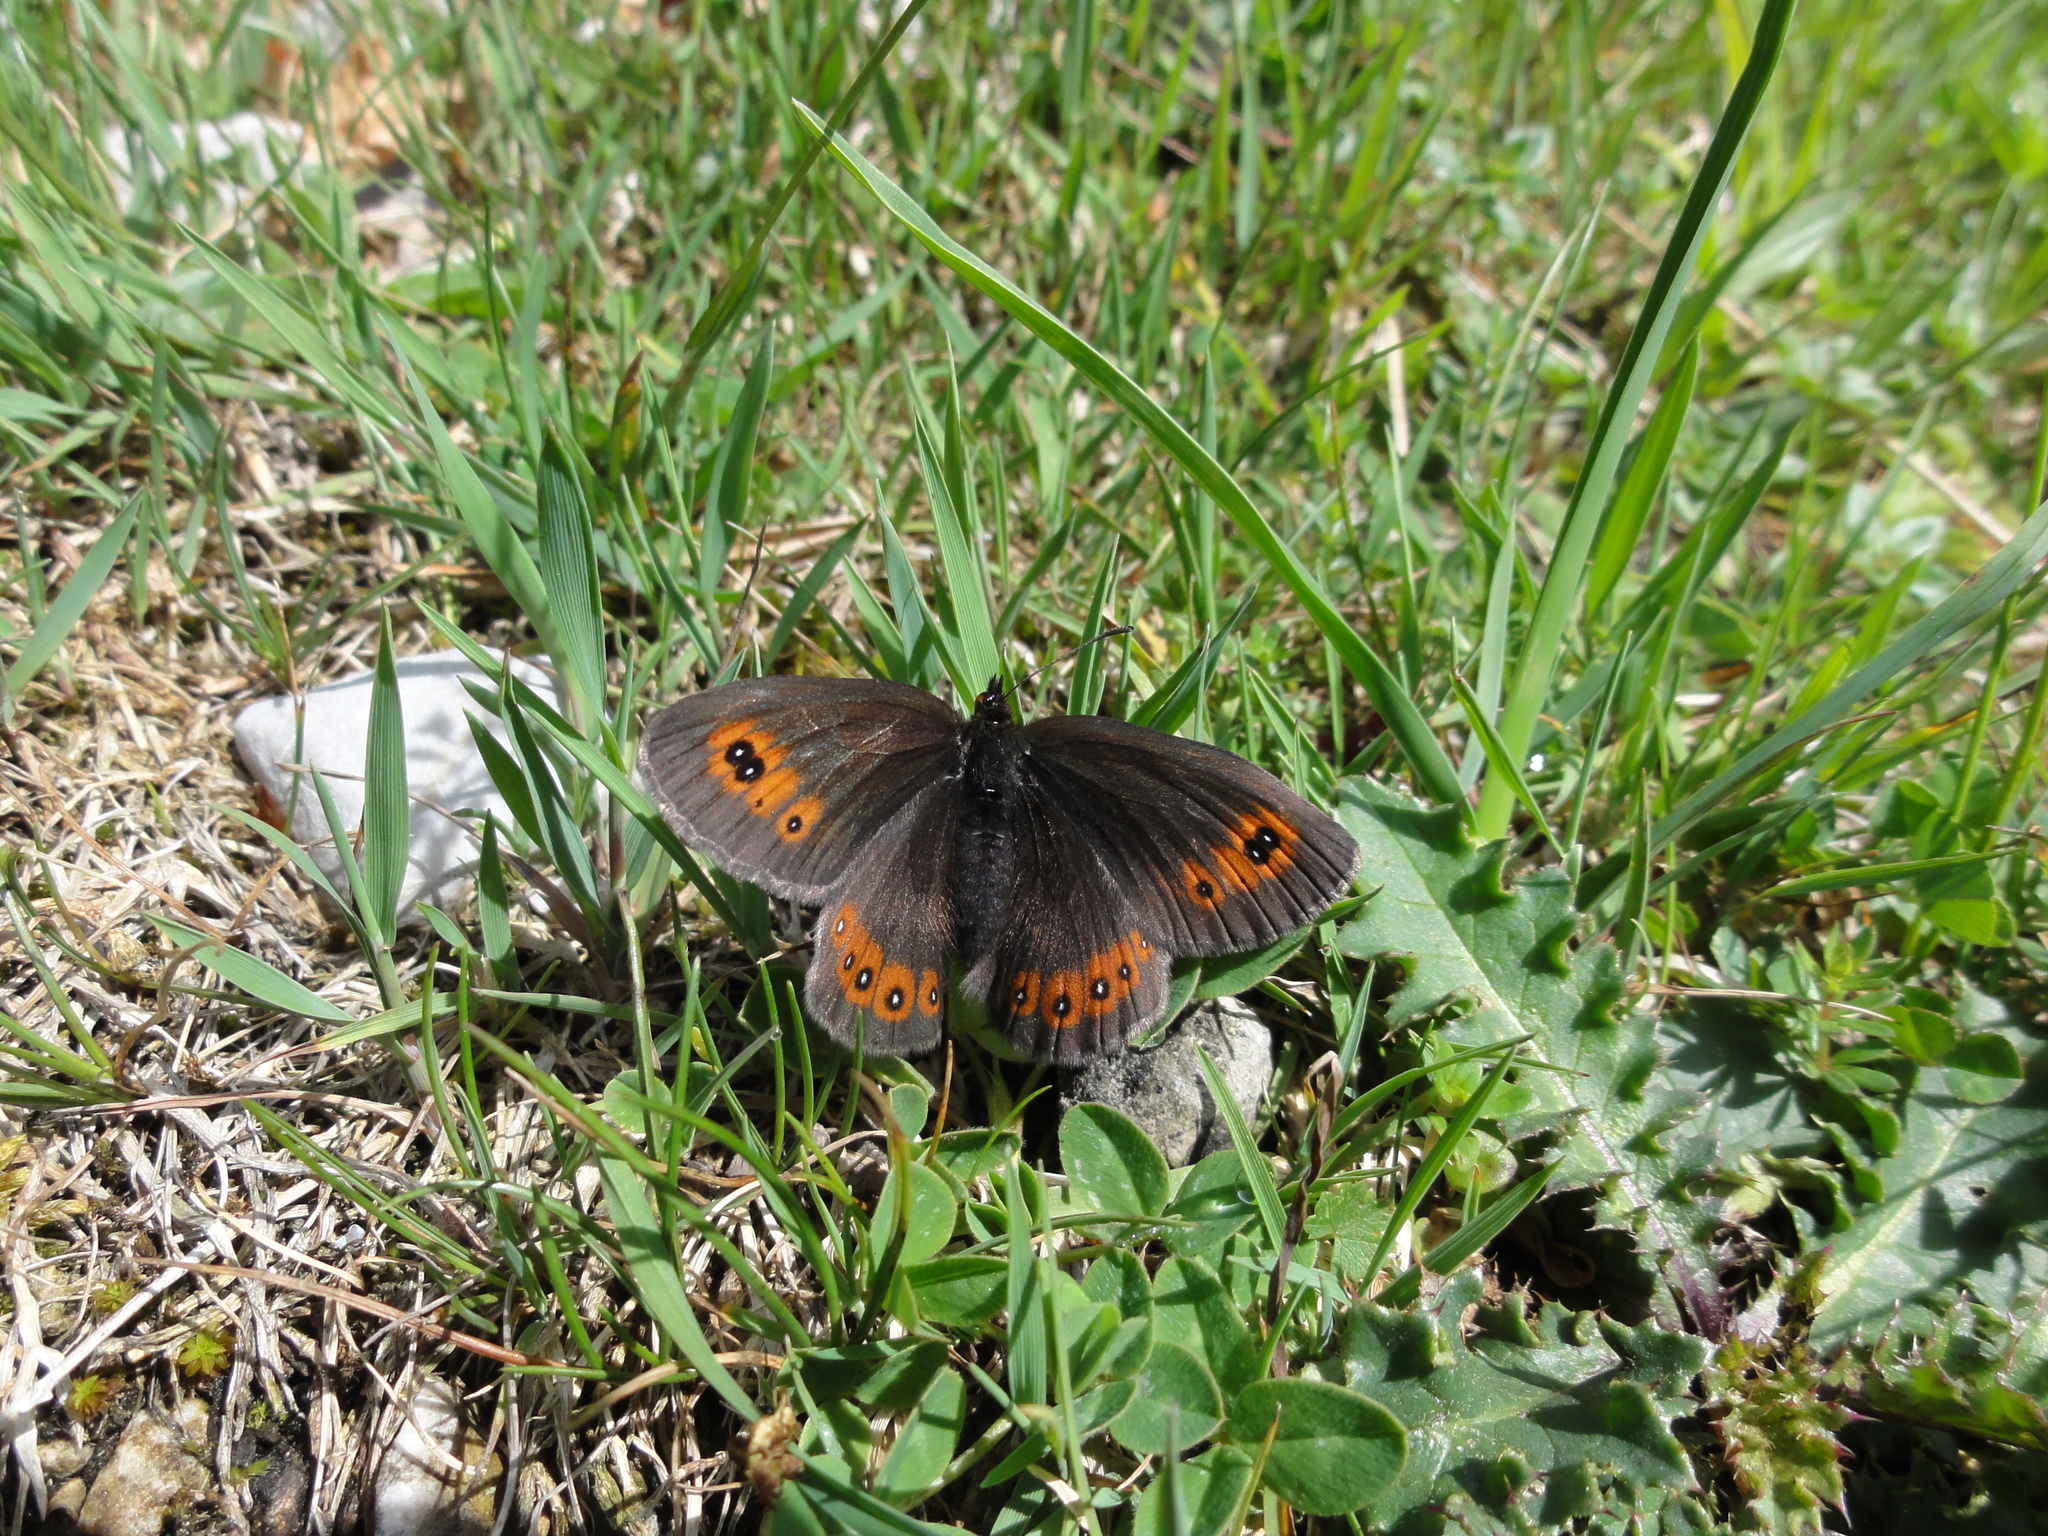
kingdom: Animalia
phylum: Arthropoda
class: Insecta
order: Lepidoptera
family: Nymphalidae
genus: Erebia
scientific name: Erebia medusa
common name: Woodland ringlet
